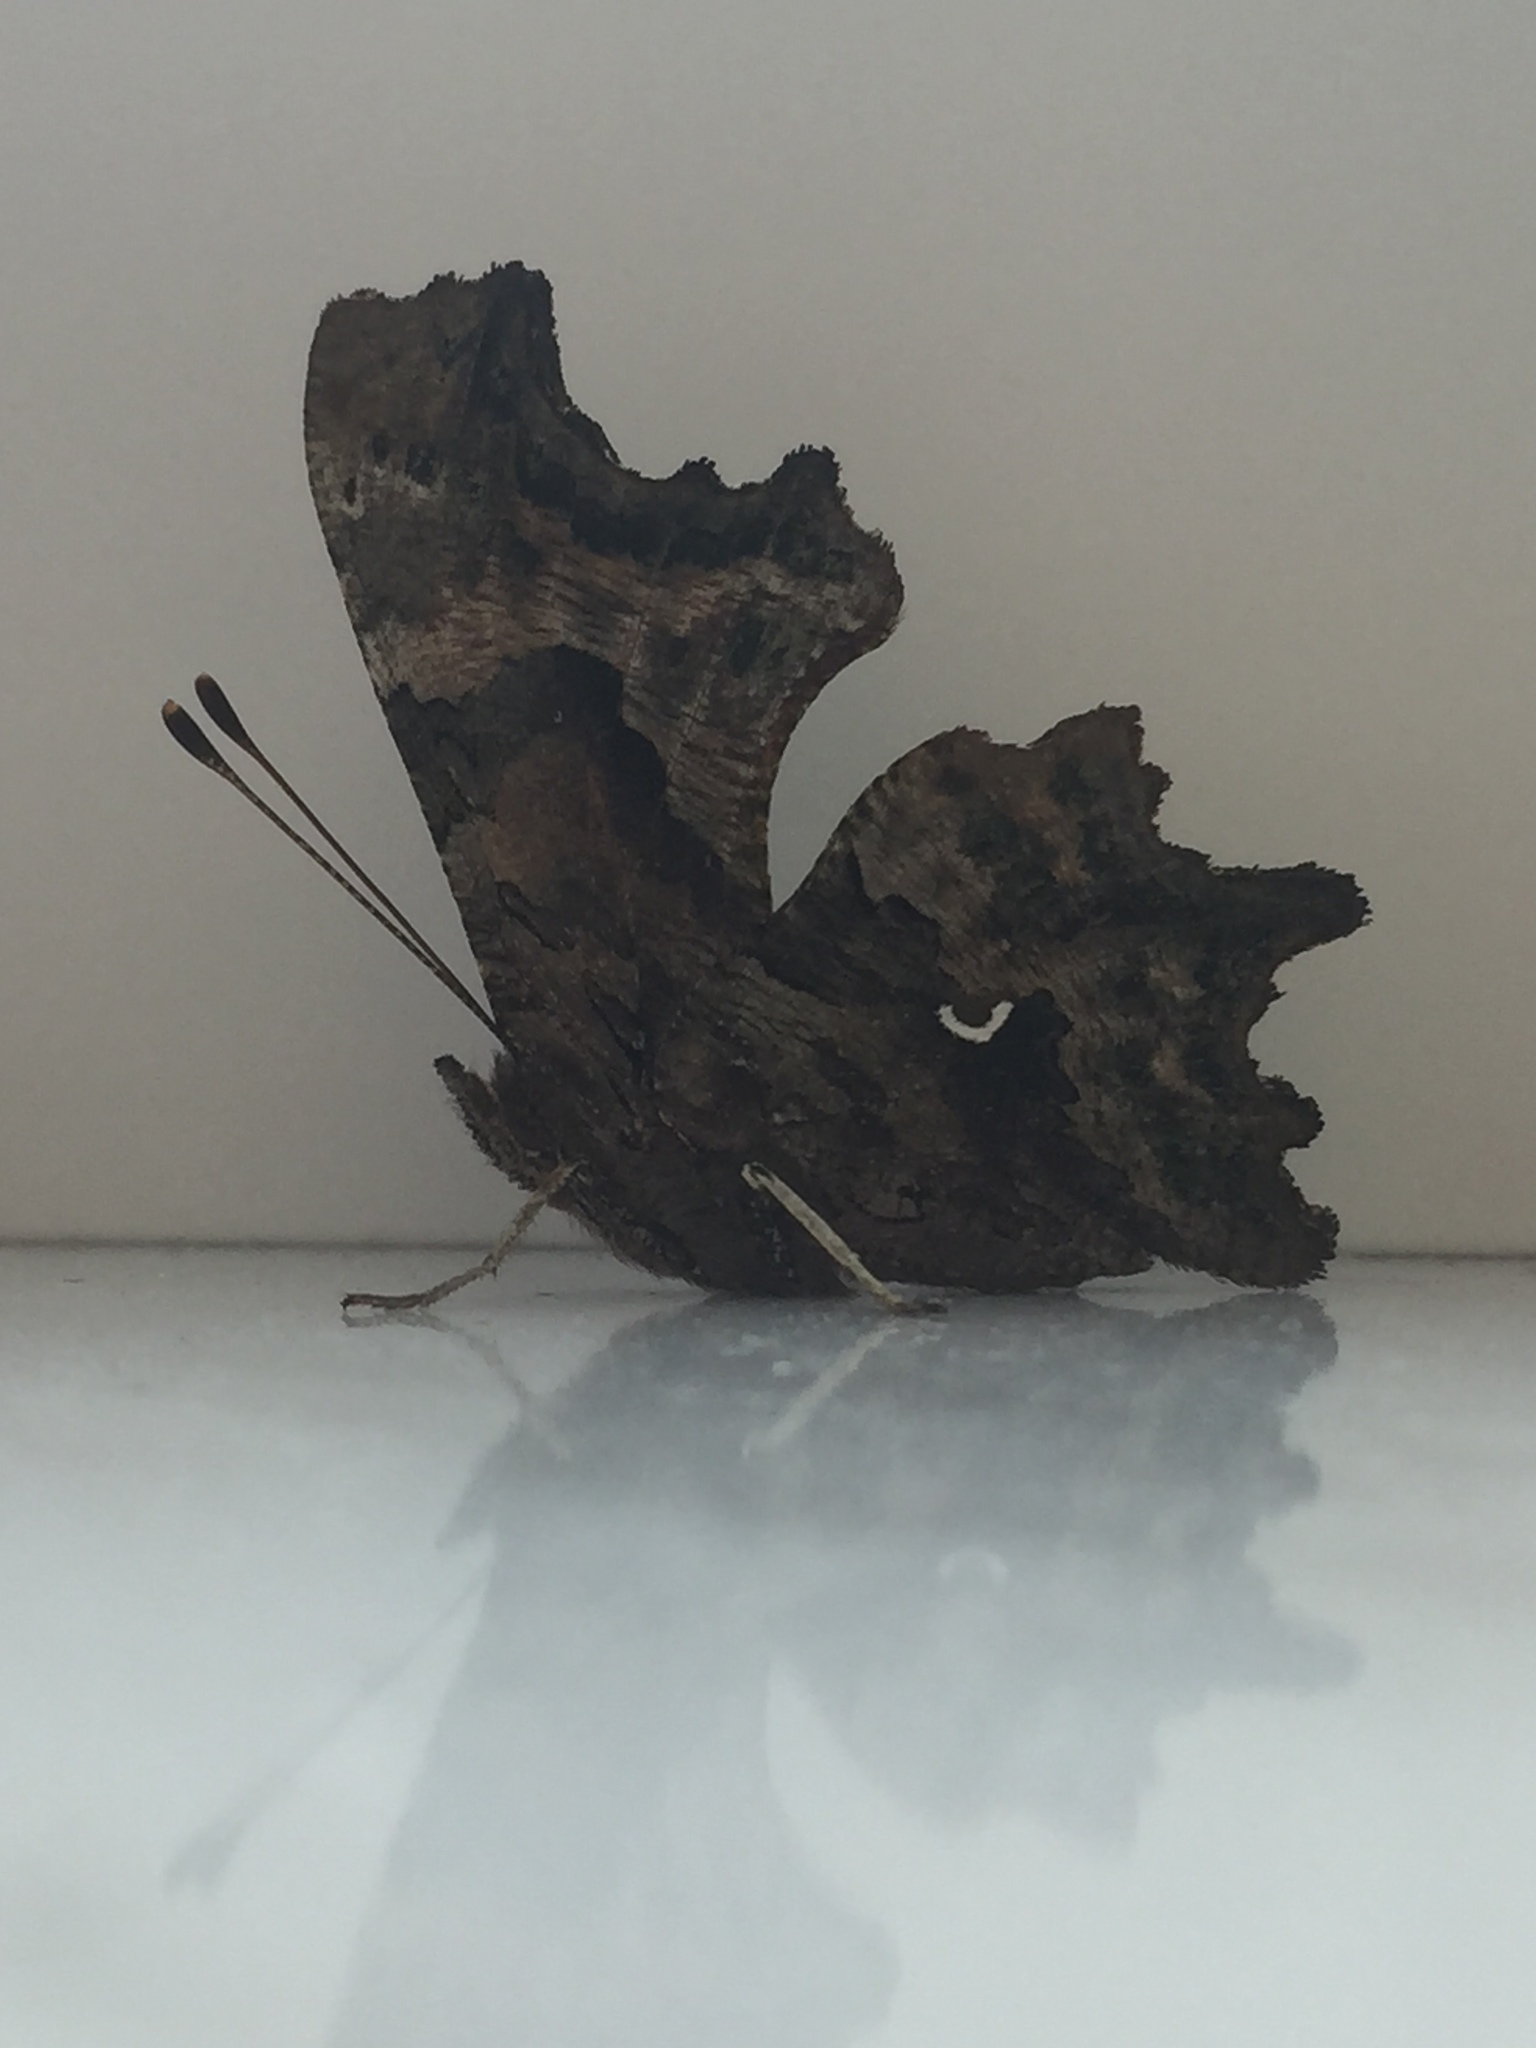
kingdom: Animalia
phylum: Arthropoda
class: Insecta
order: Lepidoptera
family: Nymphalidae
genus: Polygonia
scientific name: Polygonia c-album
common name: Comma
